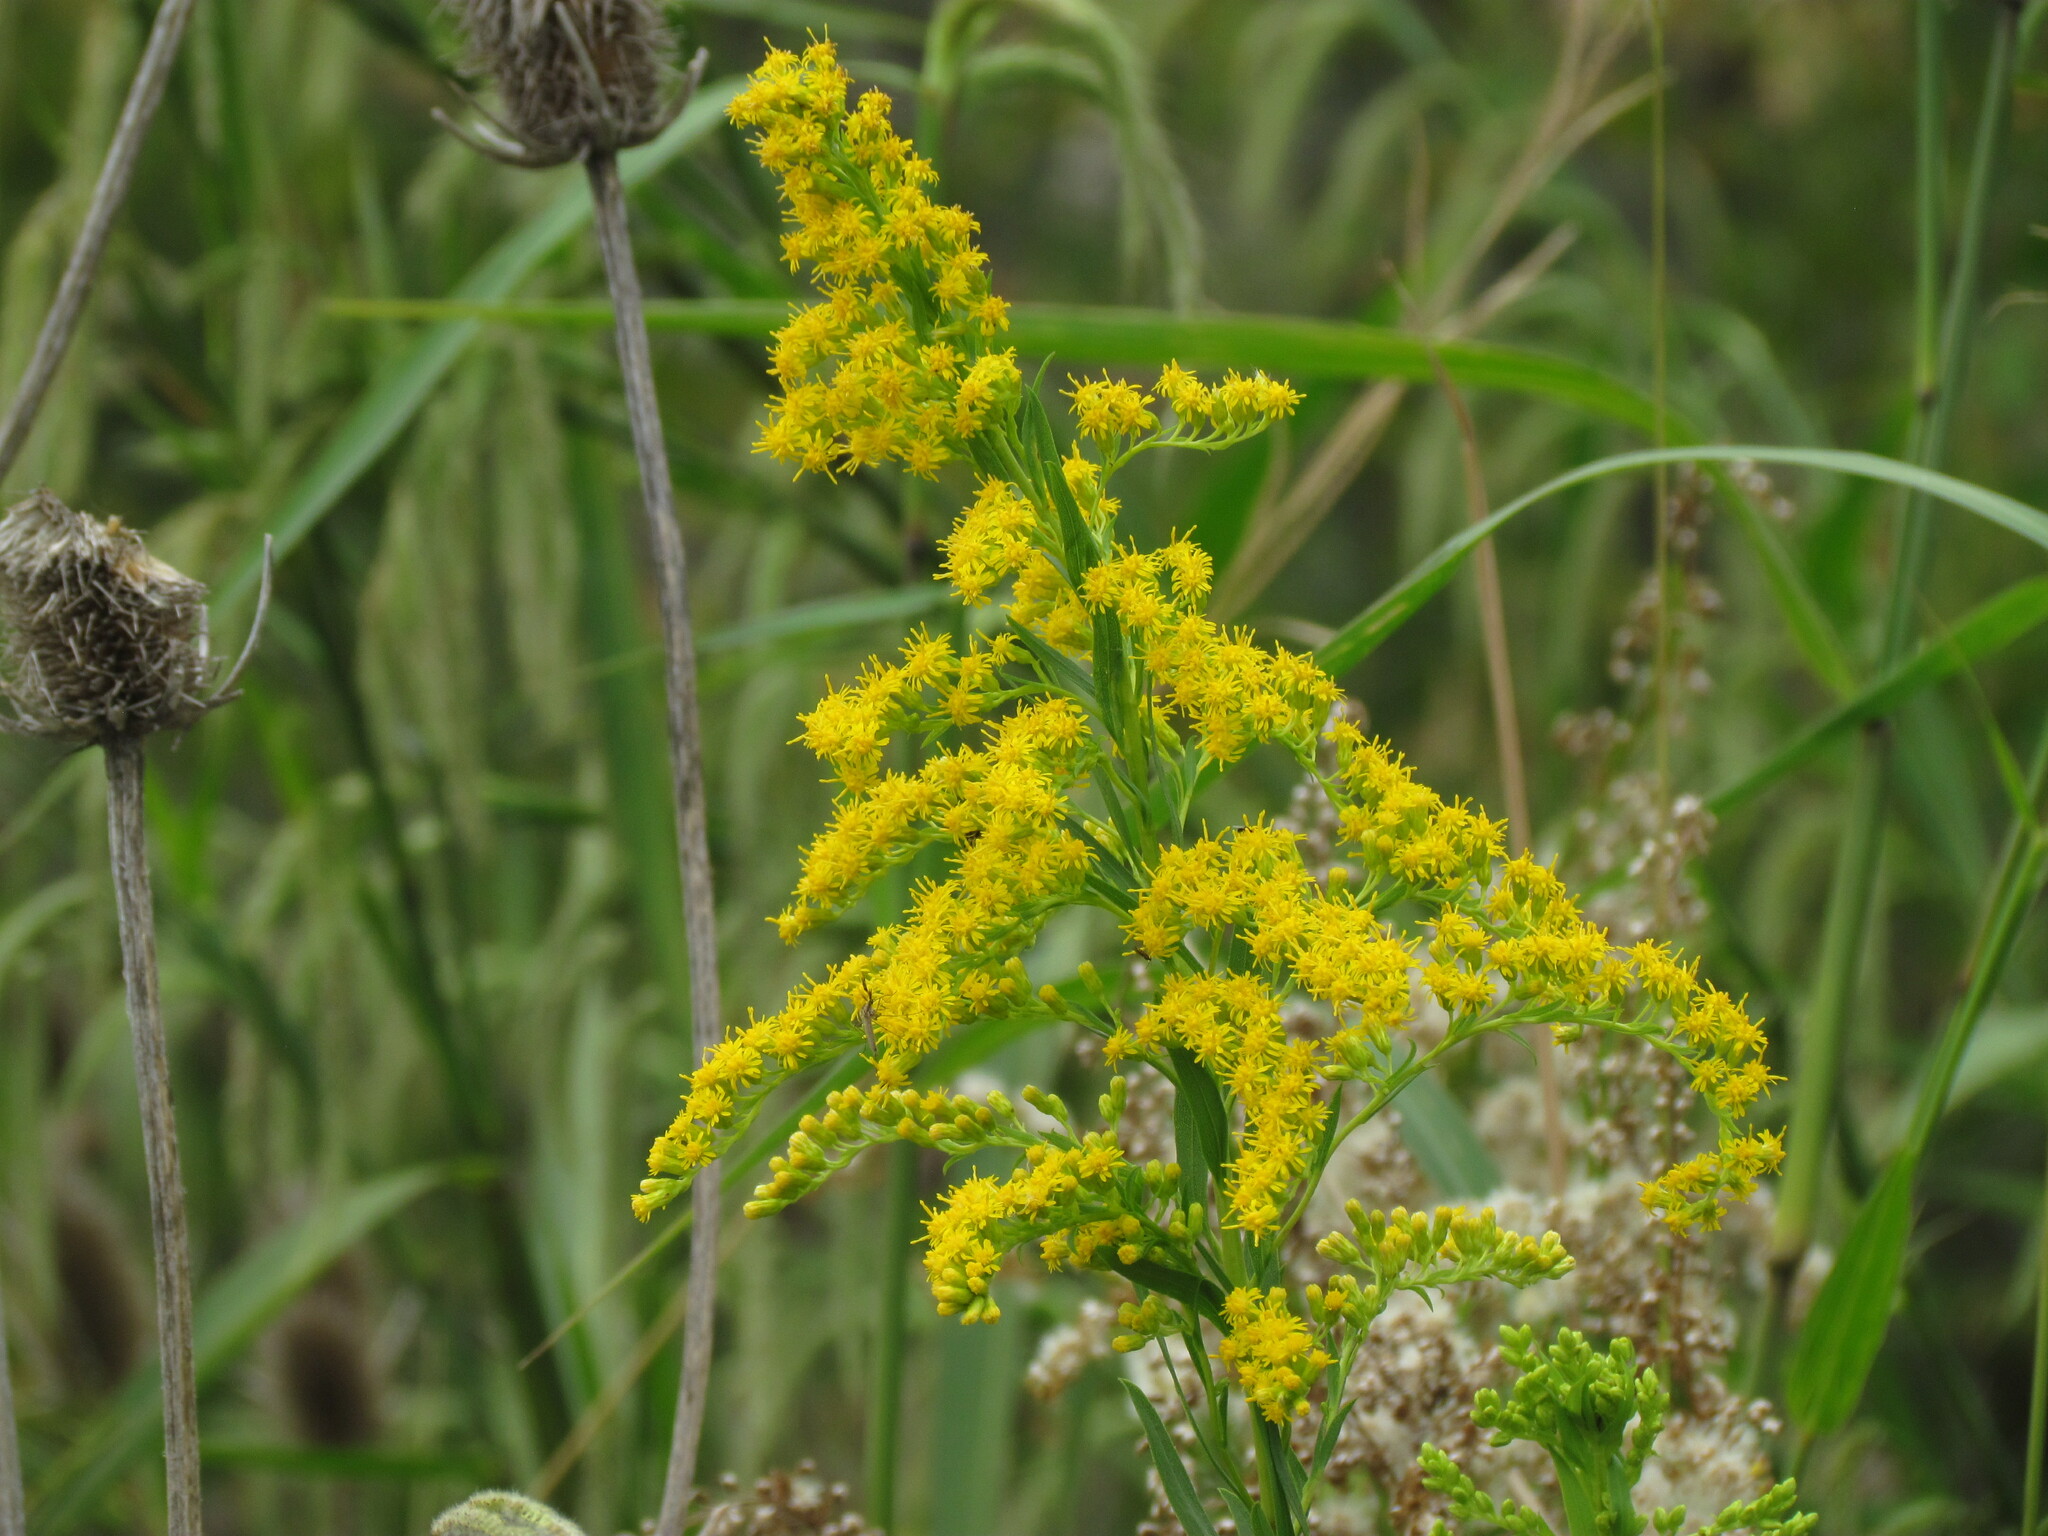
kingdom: Plantae
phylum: Tracheophyta
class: Magnoliopsida
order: Asterales
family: Asteraceae
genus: Solidago
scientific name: Solidago chilensis
